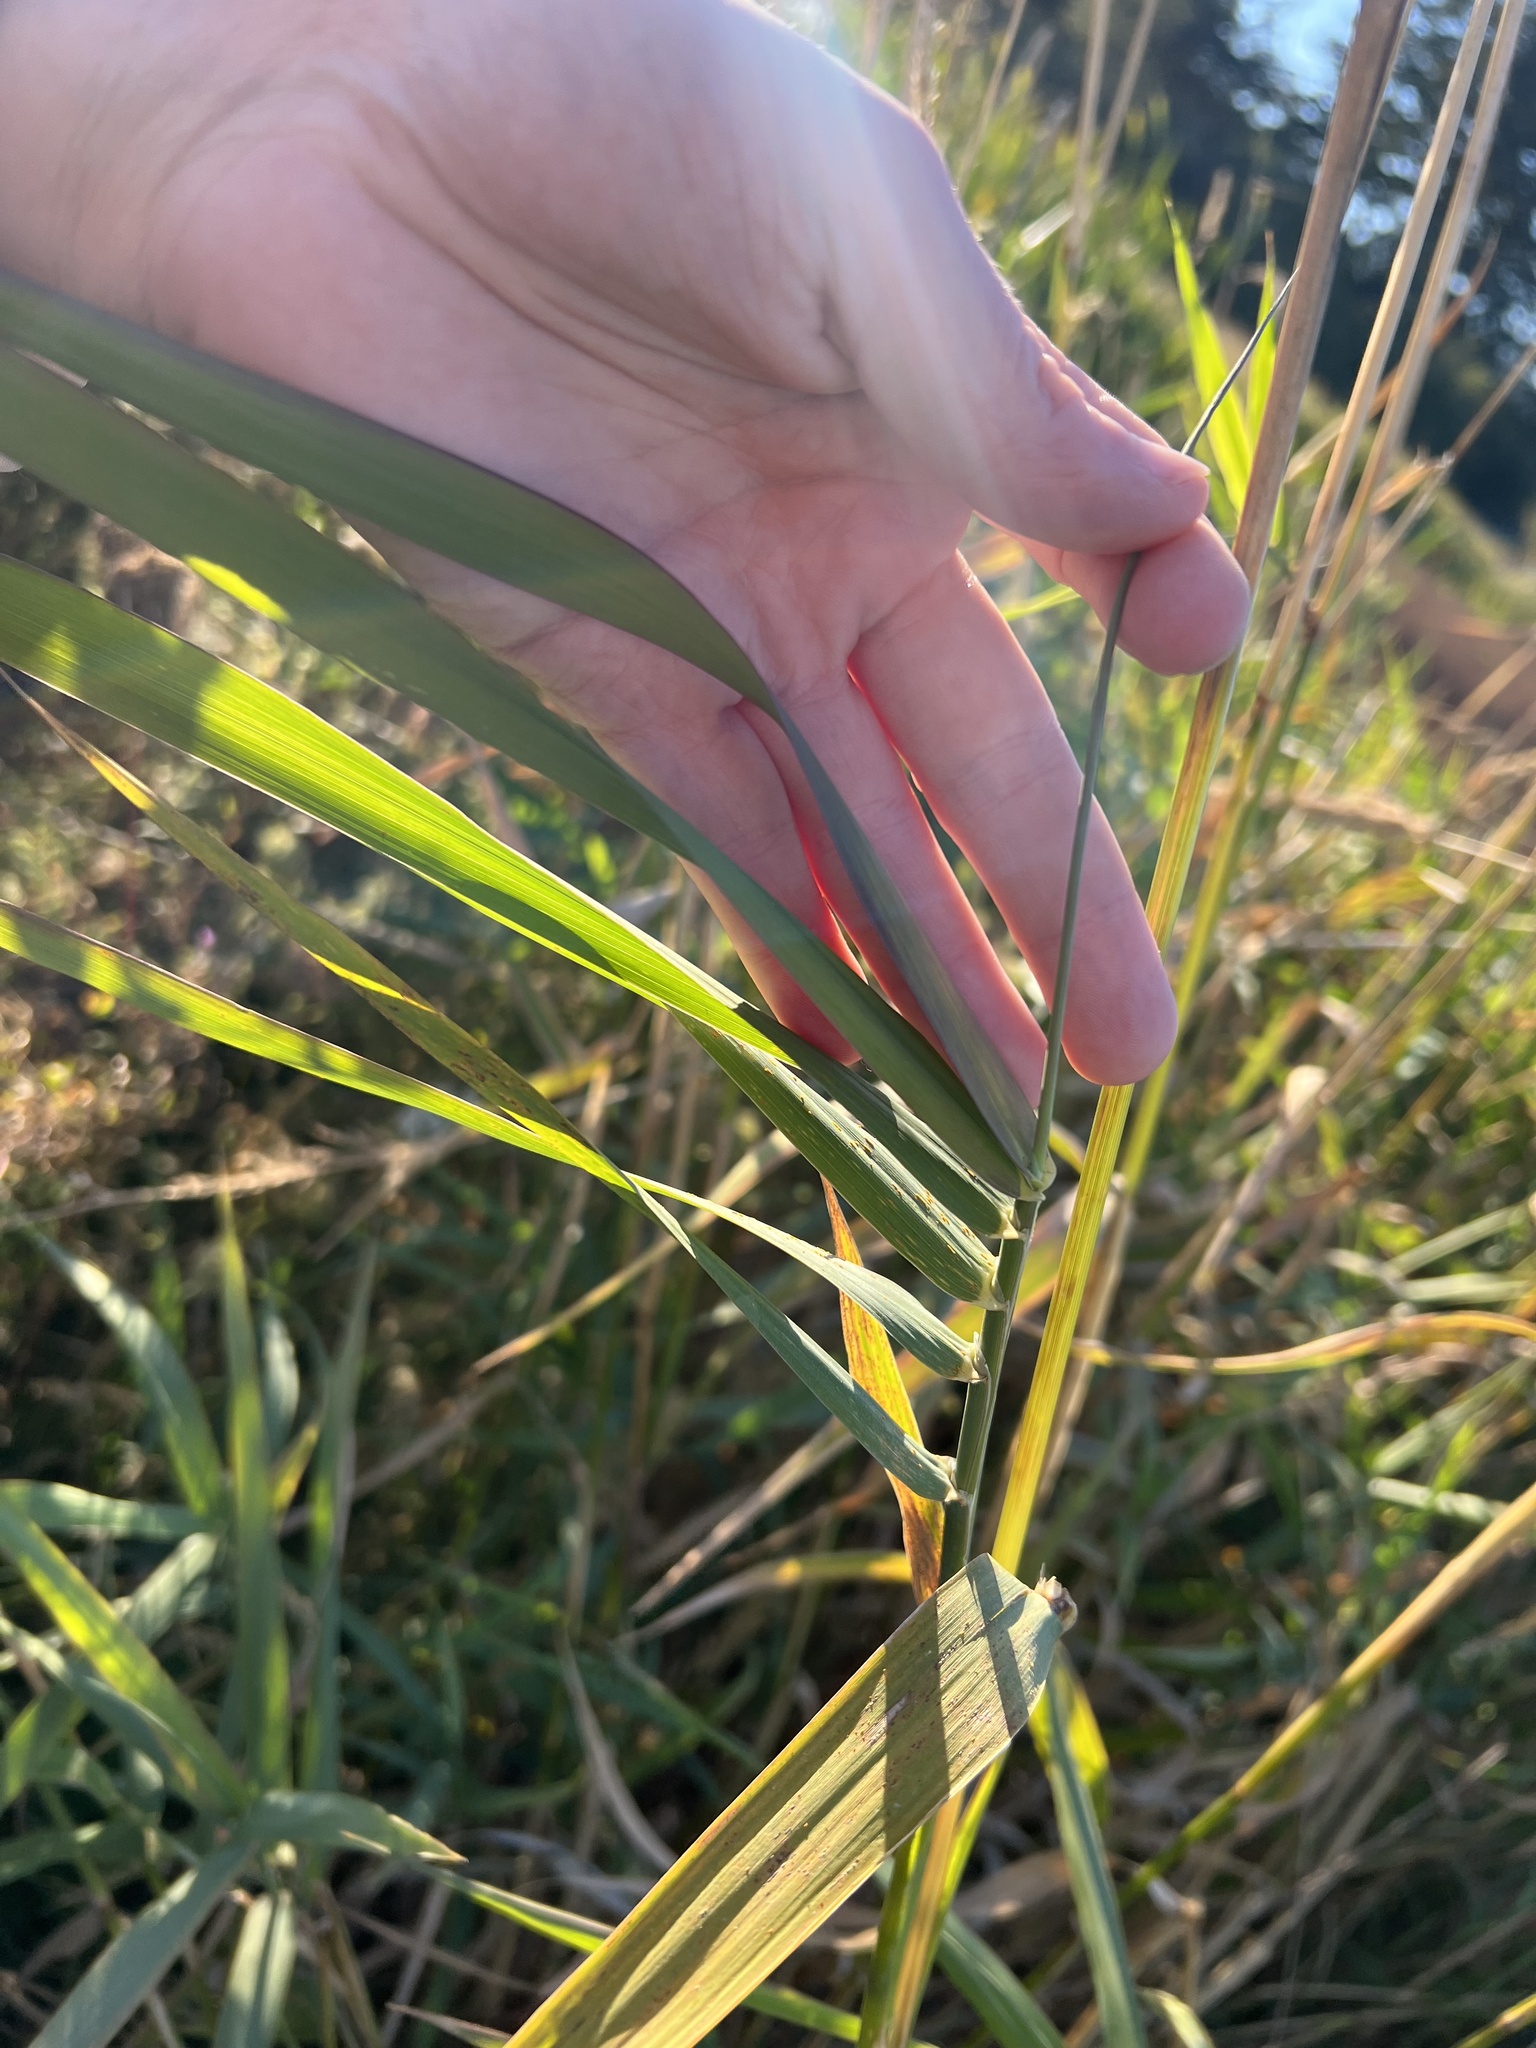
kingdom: Plantae
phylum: Tracheophyta
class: Liliopsida
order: Poales
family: Poaceae
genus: Phalaris
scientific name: Phalaris arundinacea
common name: Reed canary-grass
